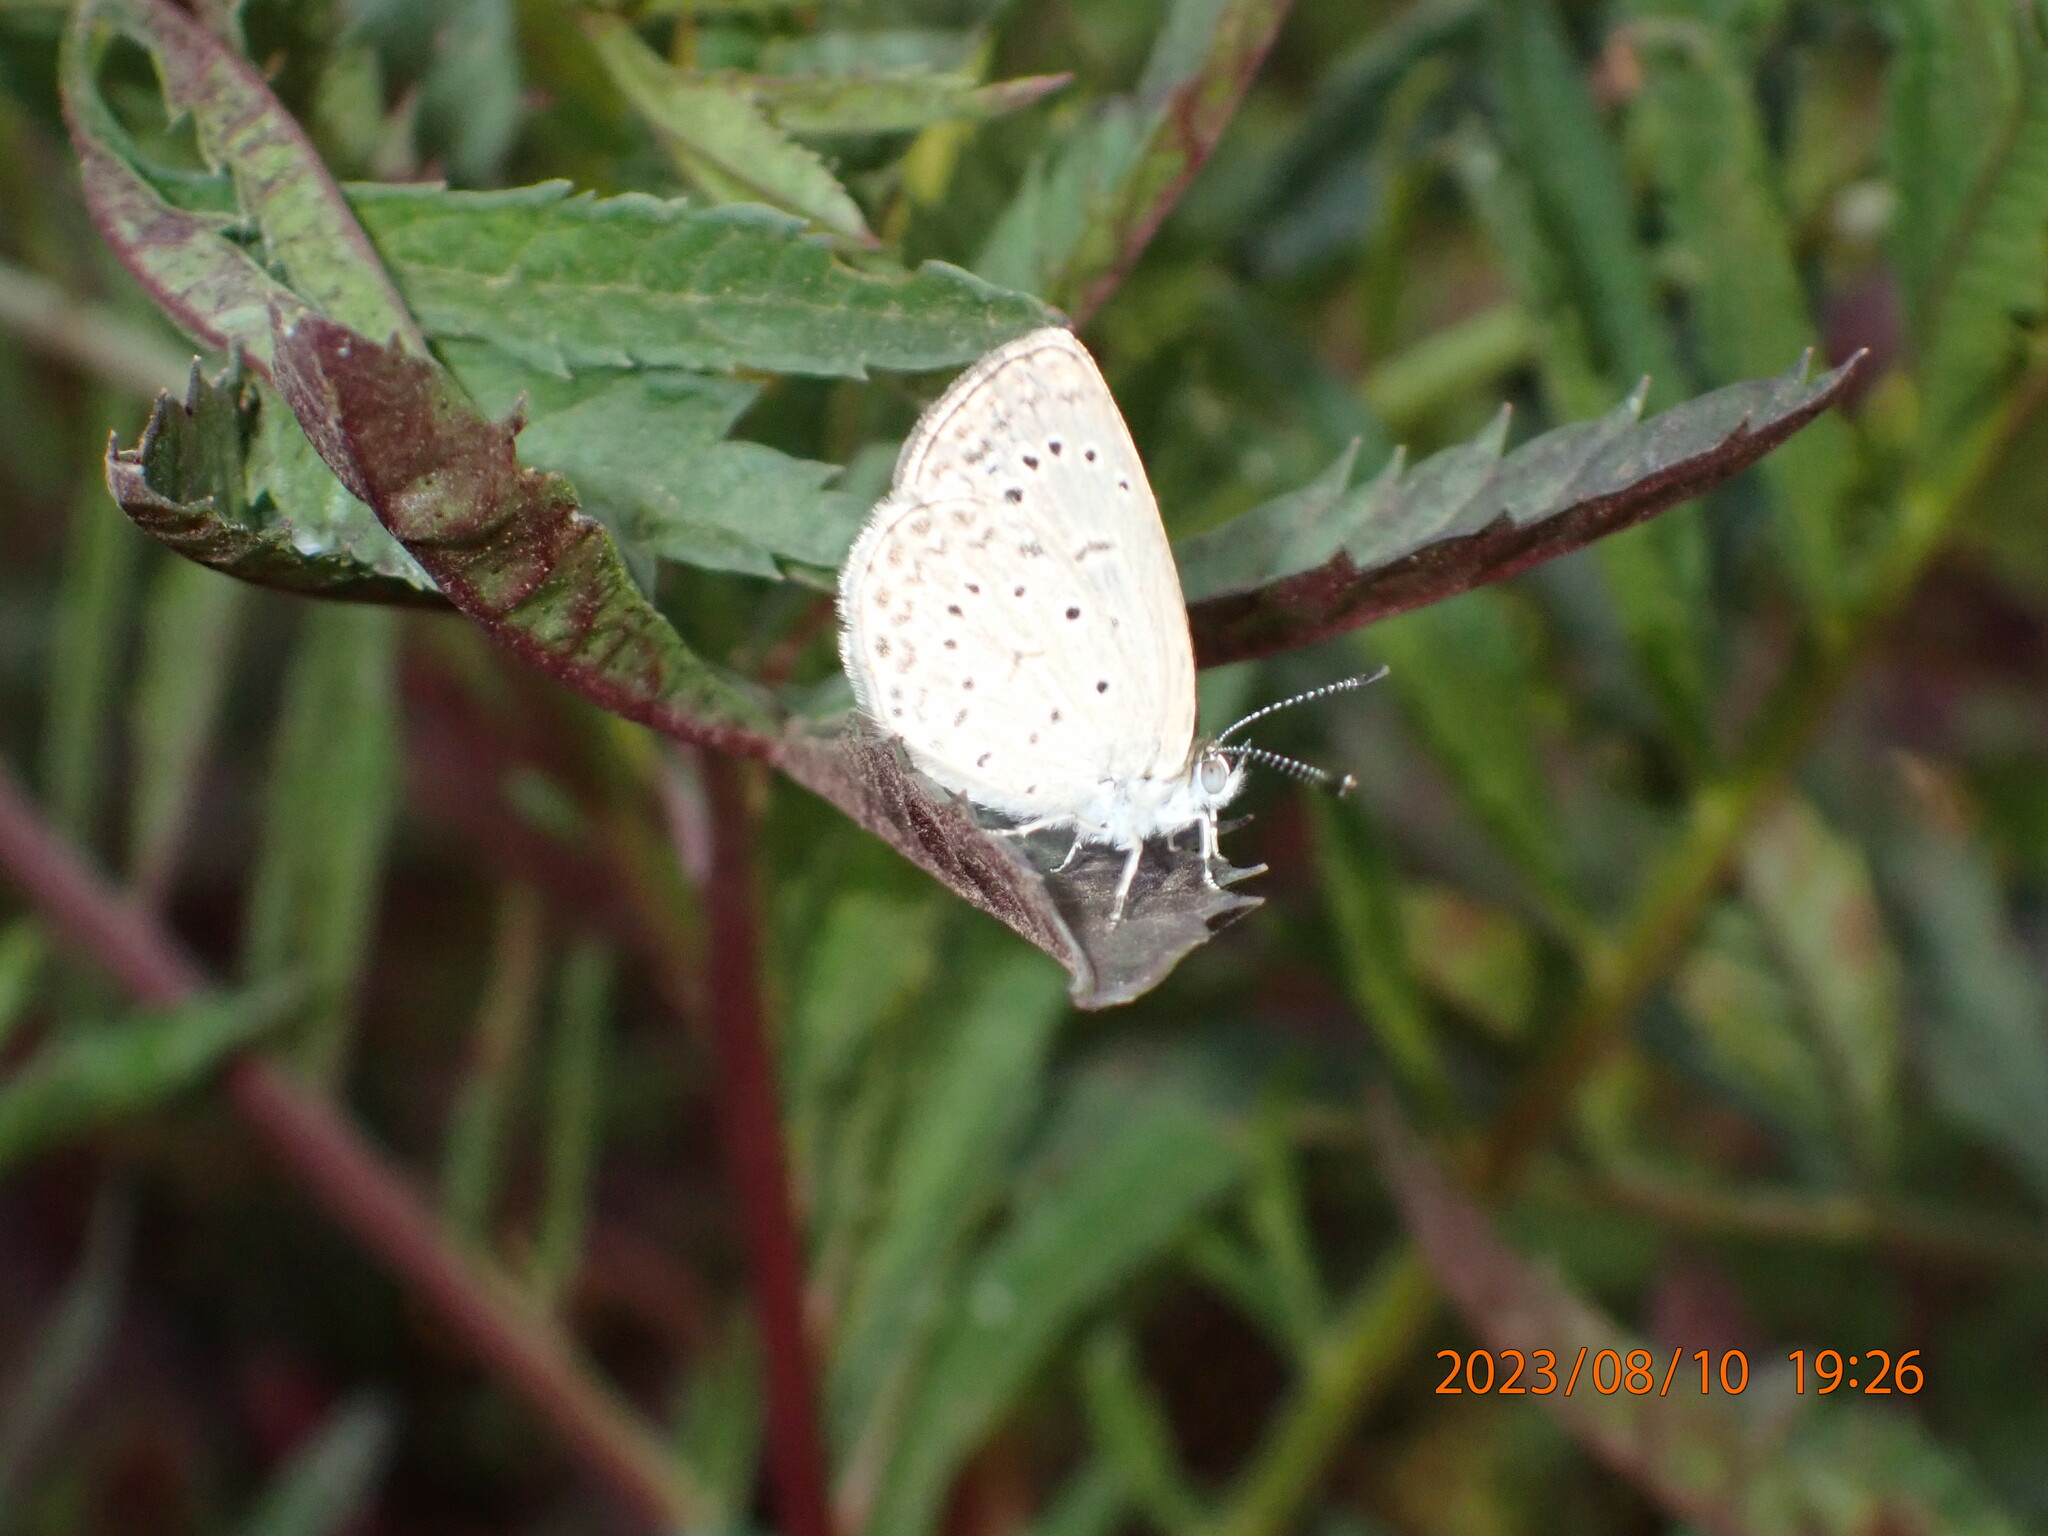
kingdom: Animalia
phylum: Arthropoda
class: Insecta
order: Lepidoptera
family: Lycaenidae
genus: Zizeeria
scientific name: Zizeeria knysna
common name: African grass blue
